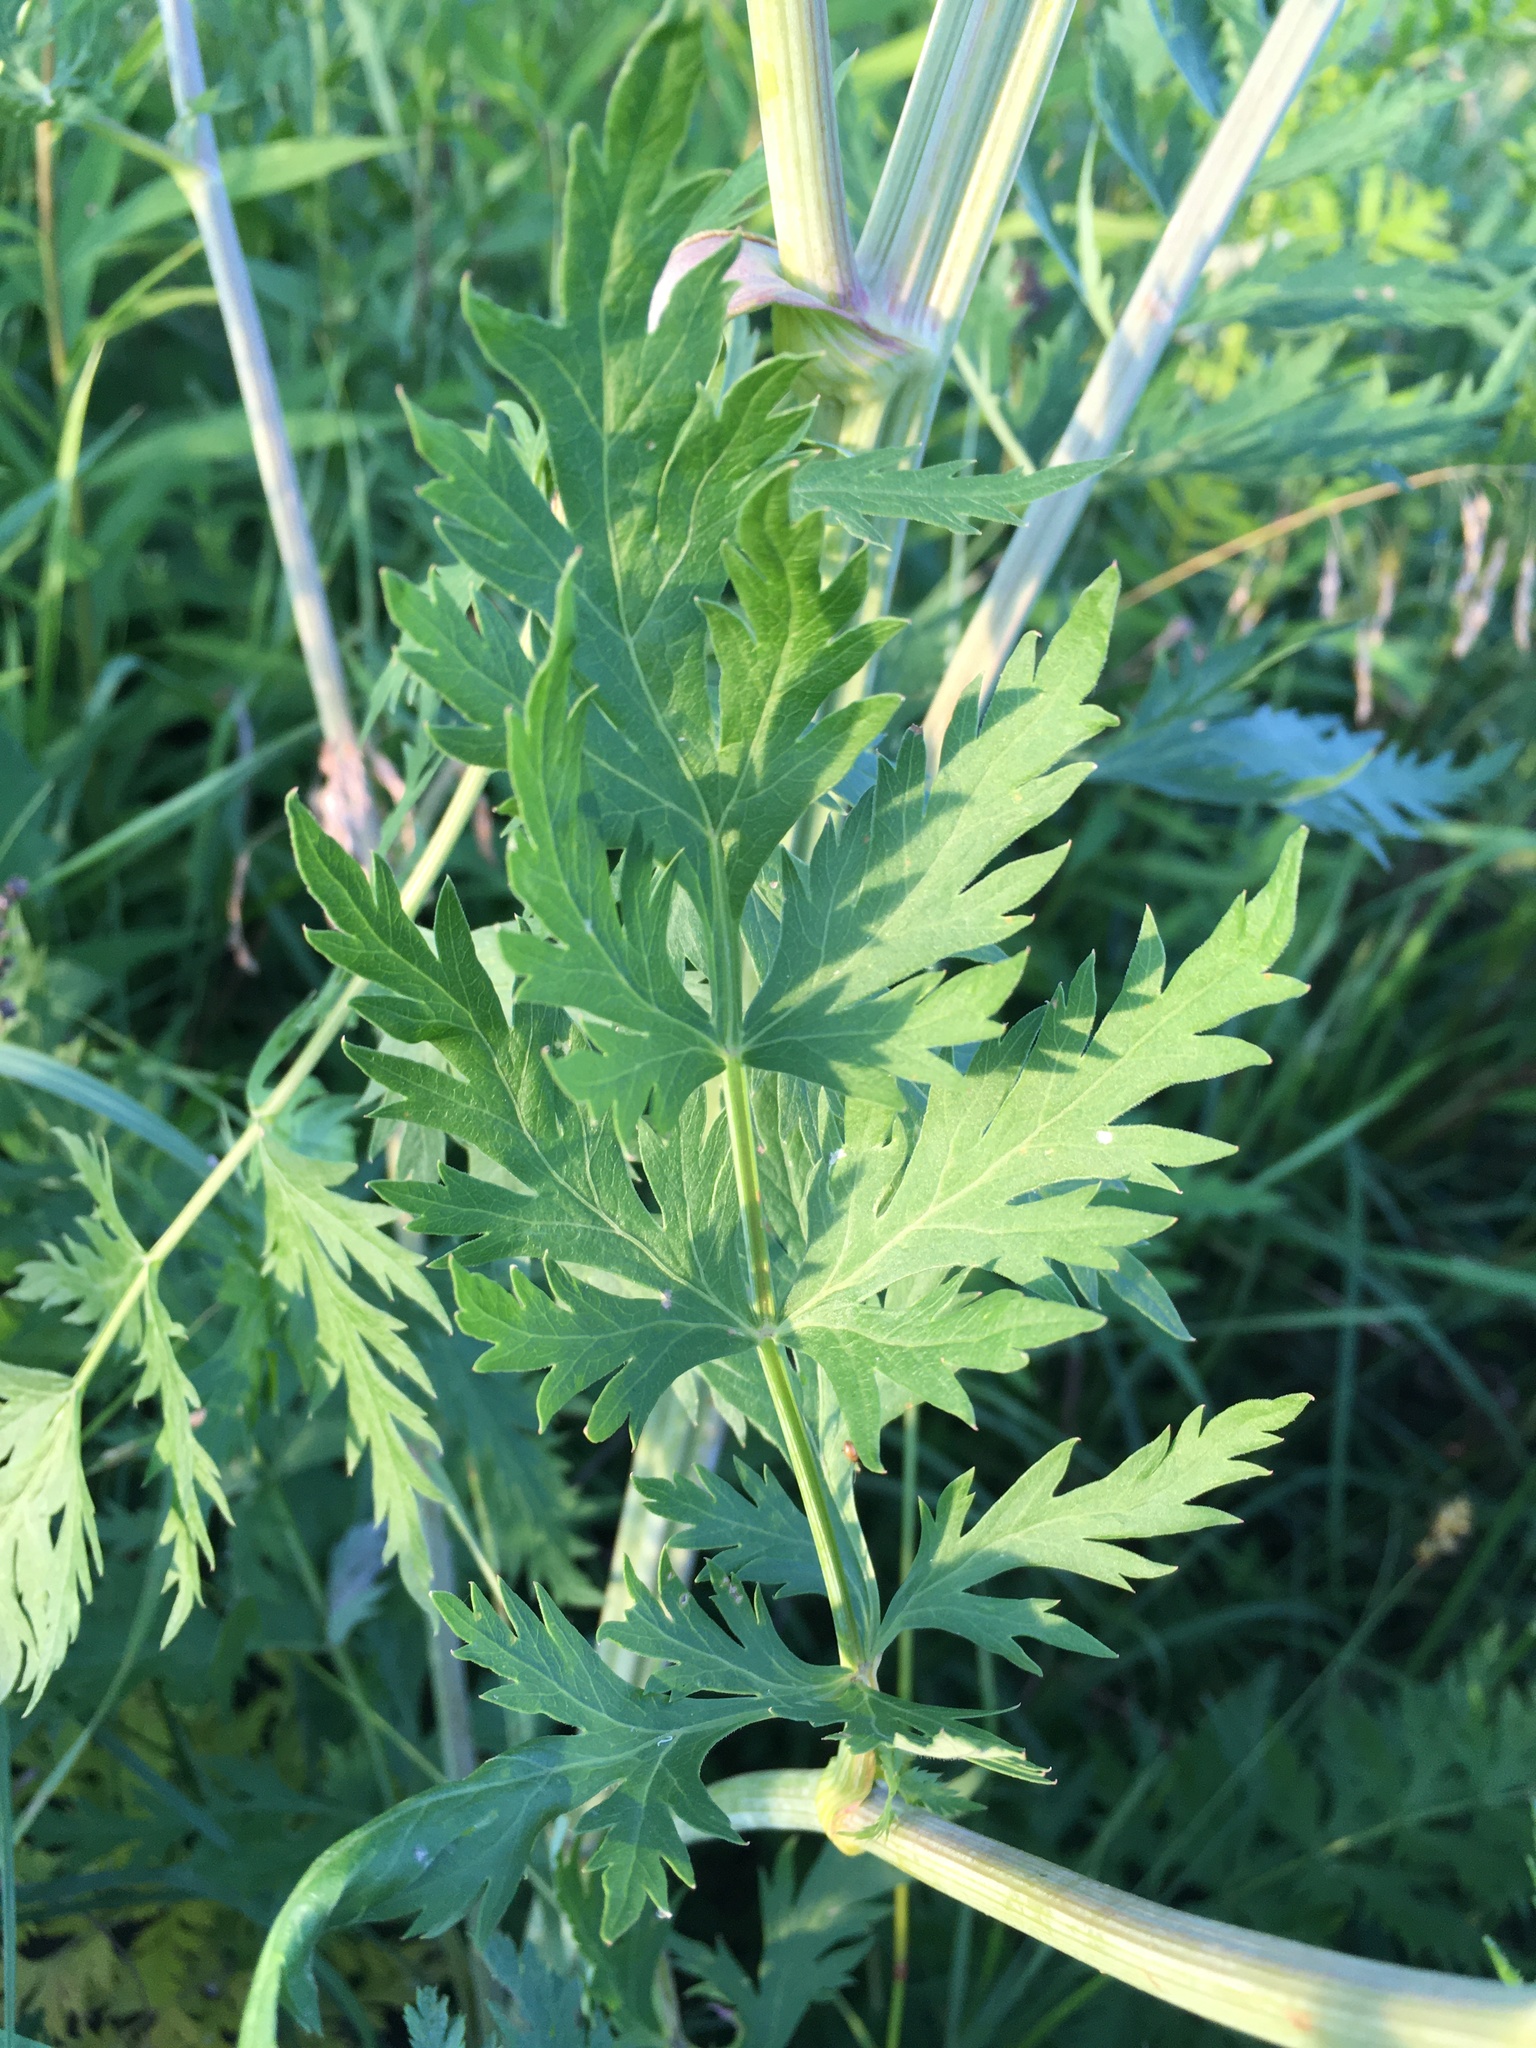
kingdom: Plantae
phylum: Tracheophyta
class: Magnoliopsida
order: Apiales
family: Apiaceae
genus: Seseli
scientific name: Seseli libanotis
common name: Mooncarrot
